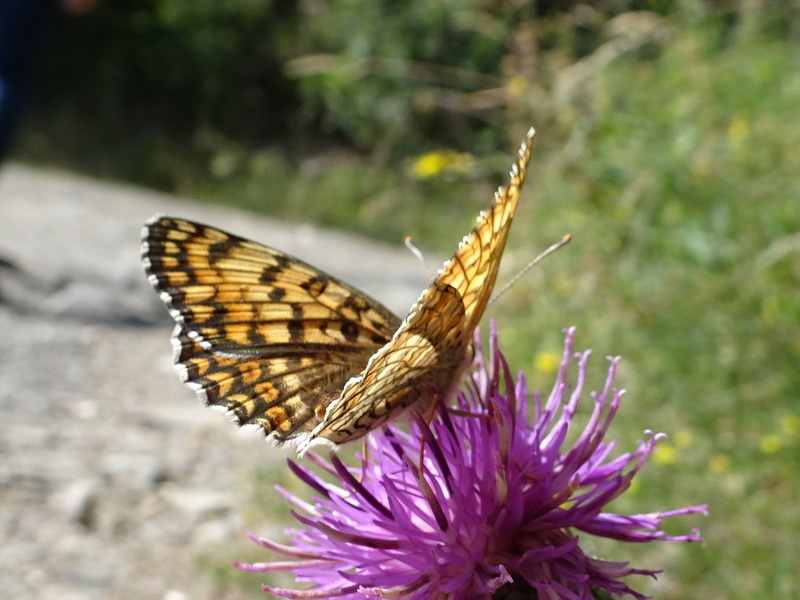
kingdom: Animalia
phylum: Arthropoda
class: Insecta
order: Lepidoptera
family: Nymphalidae
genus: Melitaea
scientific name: Melitaea phoebe
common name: Knapweed fritillary
